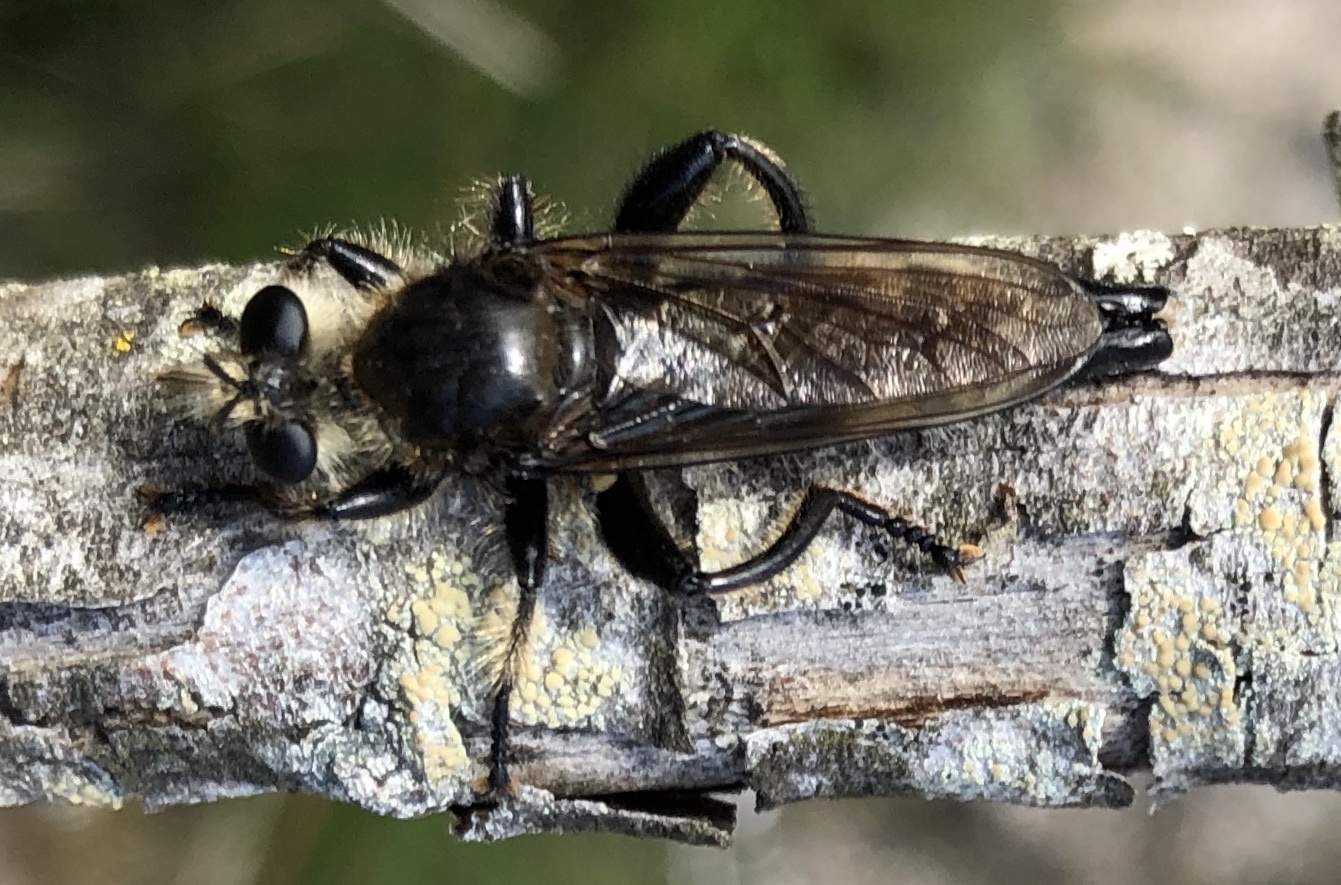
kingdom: Animalia
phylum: Arthropoda
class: Insecta
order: Diptera
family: Asilidae
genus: Laphria
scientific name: Laphria gibbosa
